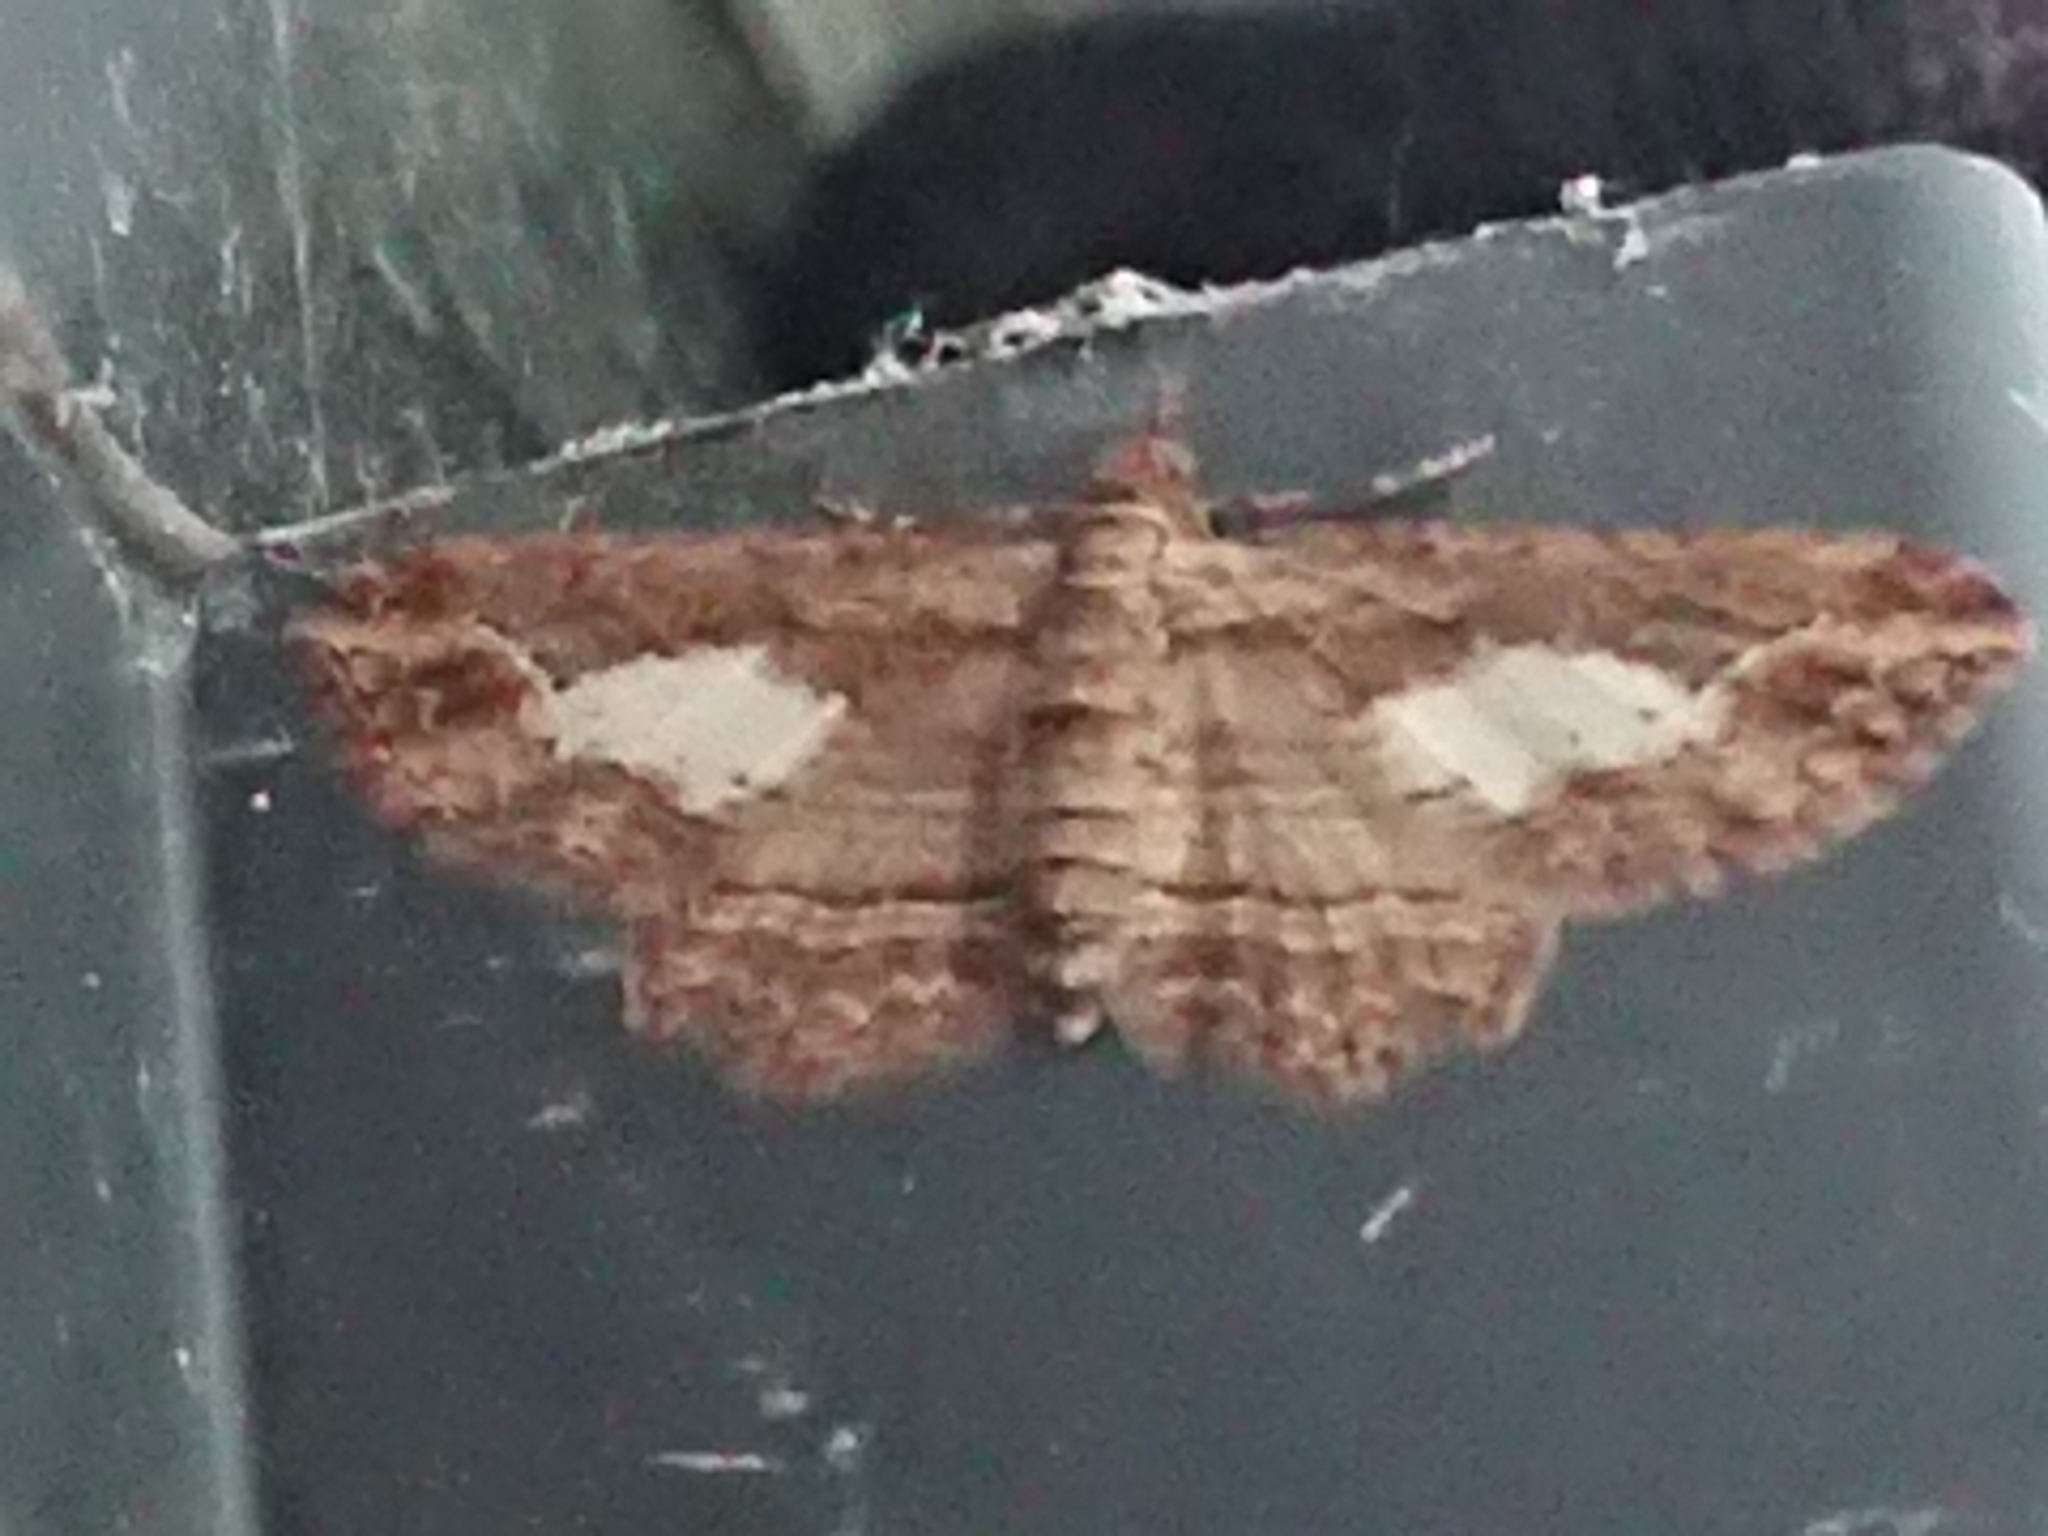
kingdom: Animalia
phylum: Arthropoda
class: Insecta
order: Lepidoptera
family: Geometridae
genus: Chloroclystis
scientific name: Chloroclystis filata
